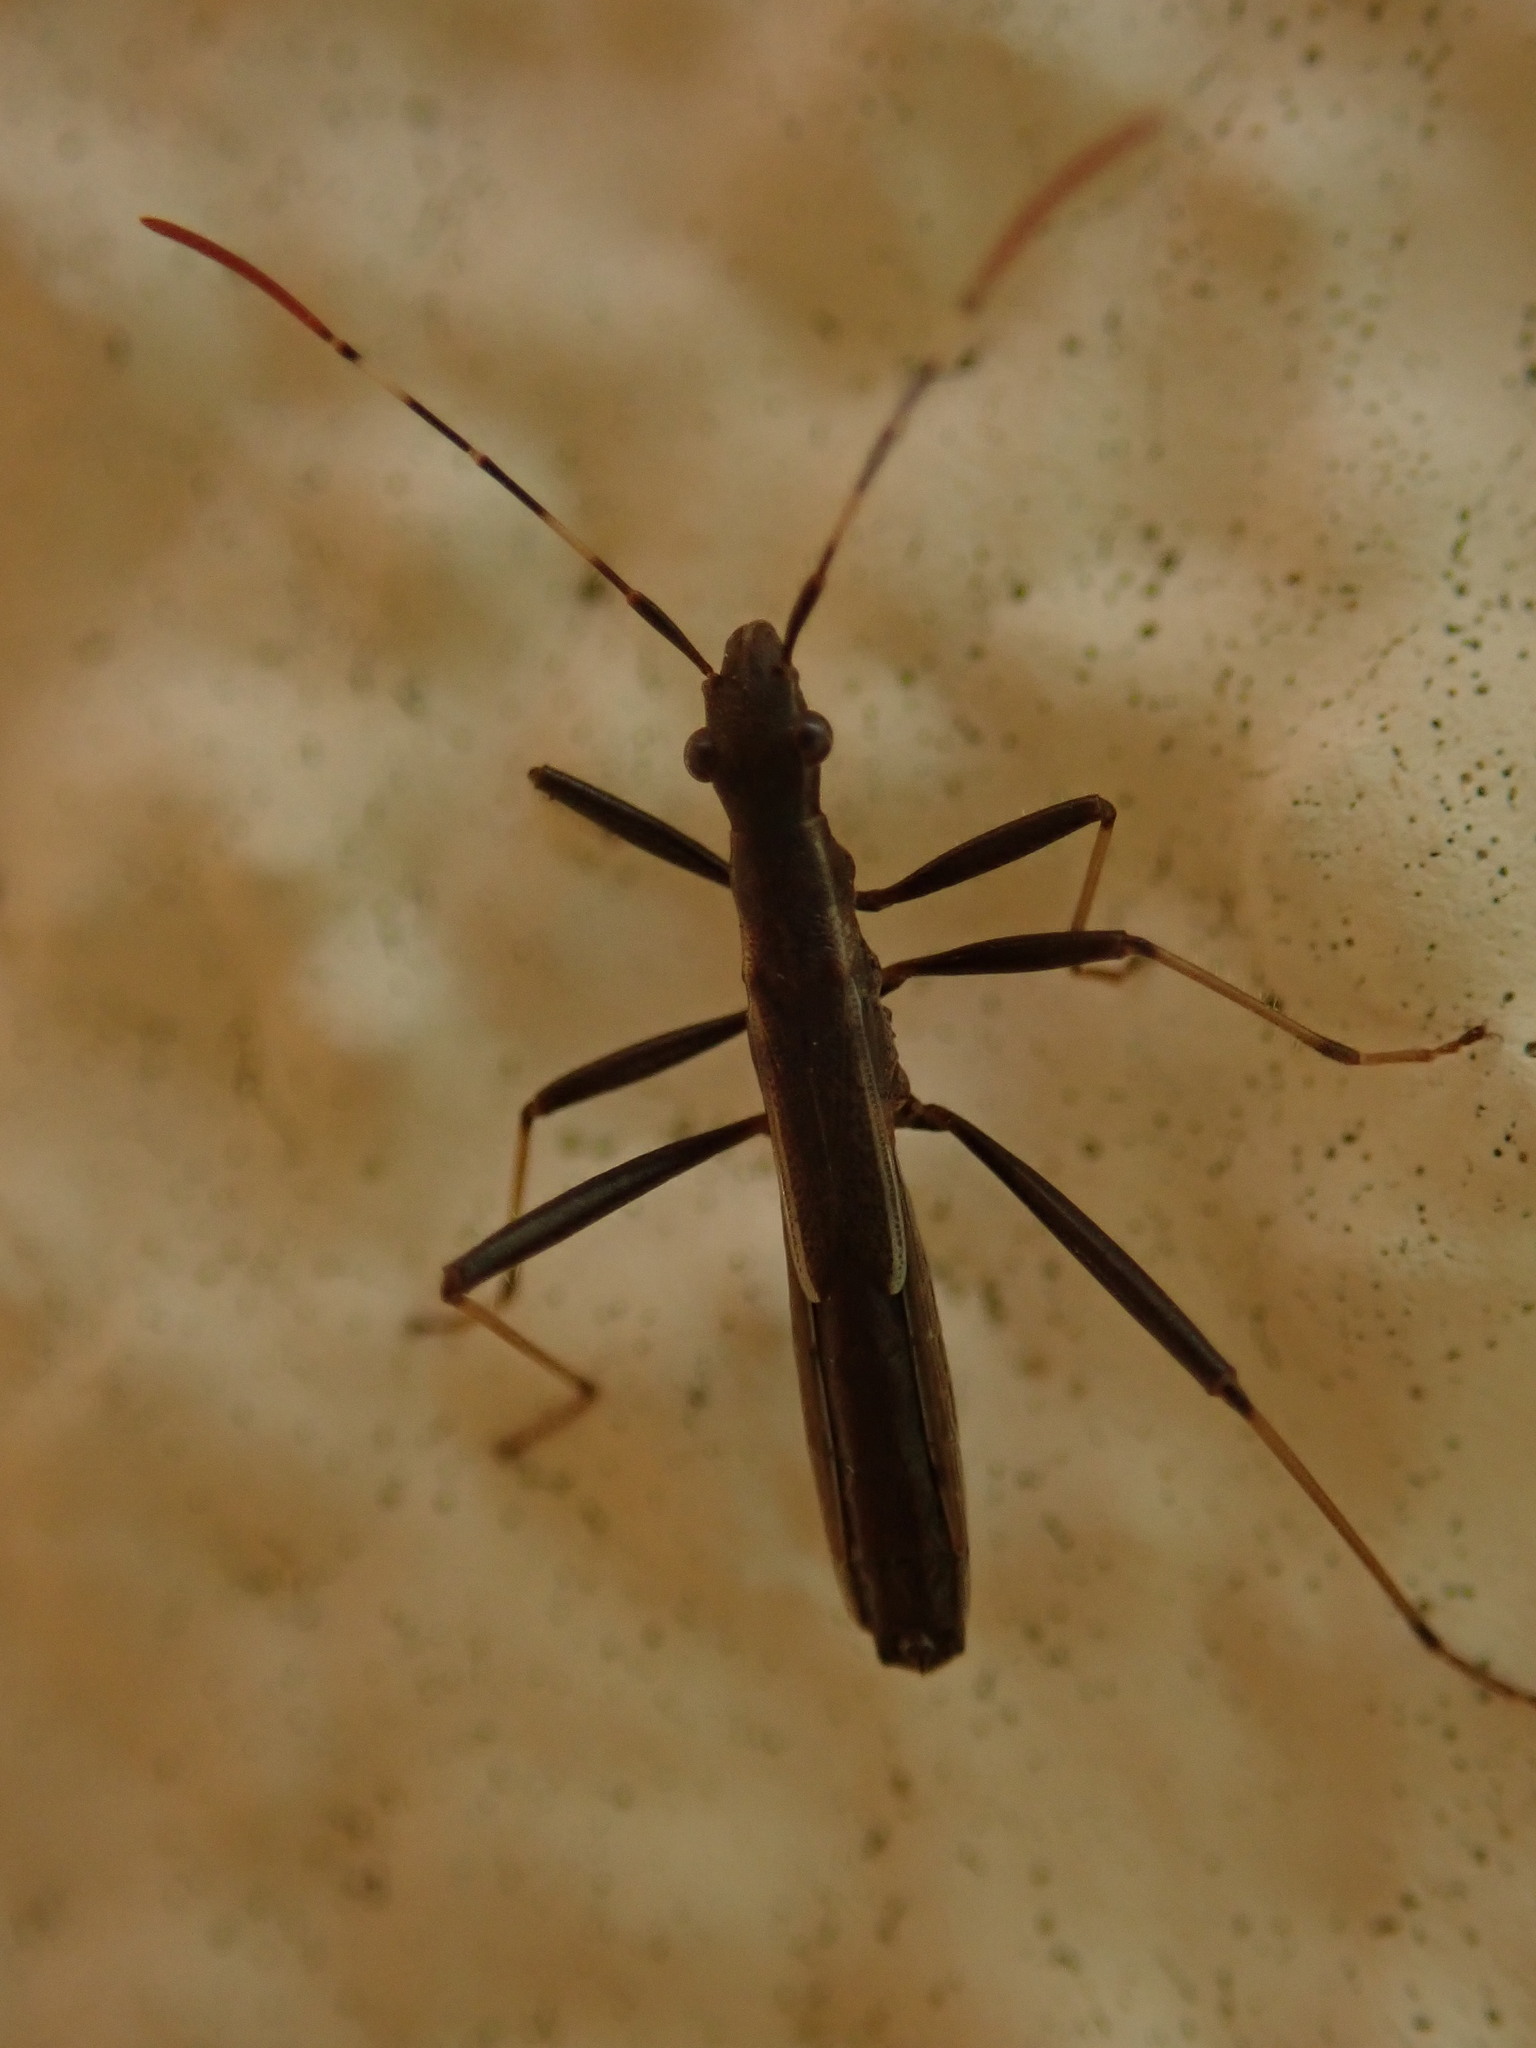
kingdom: Animalia
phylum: Arthropoda
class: Insecta
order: Hemiptera
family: Alydidae
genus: Micrelytra
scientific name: Micrelytra fossularum
